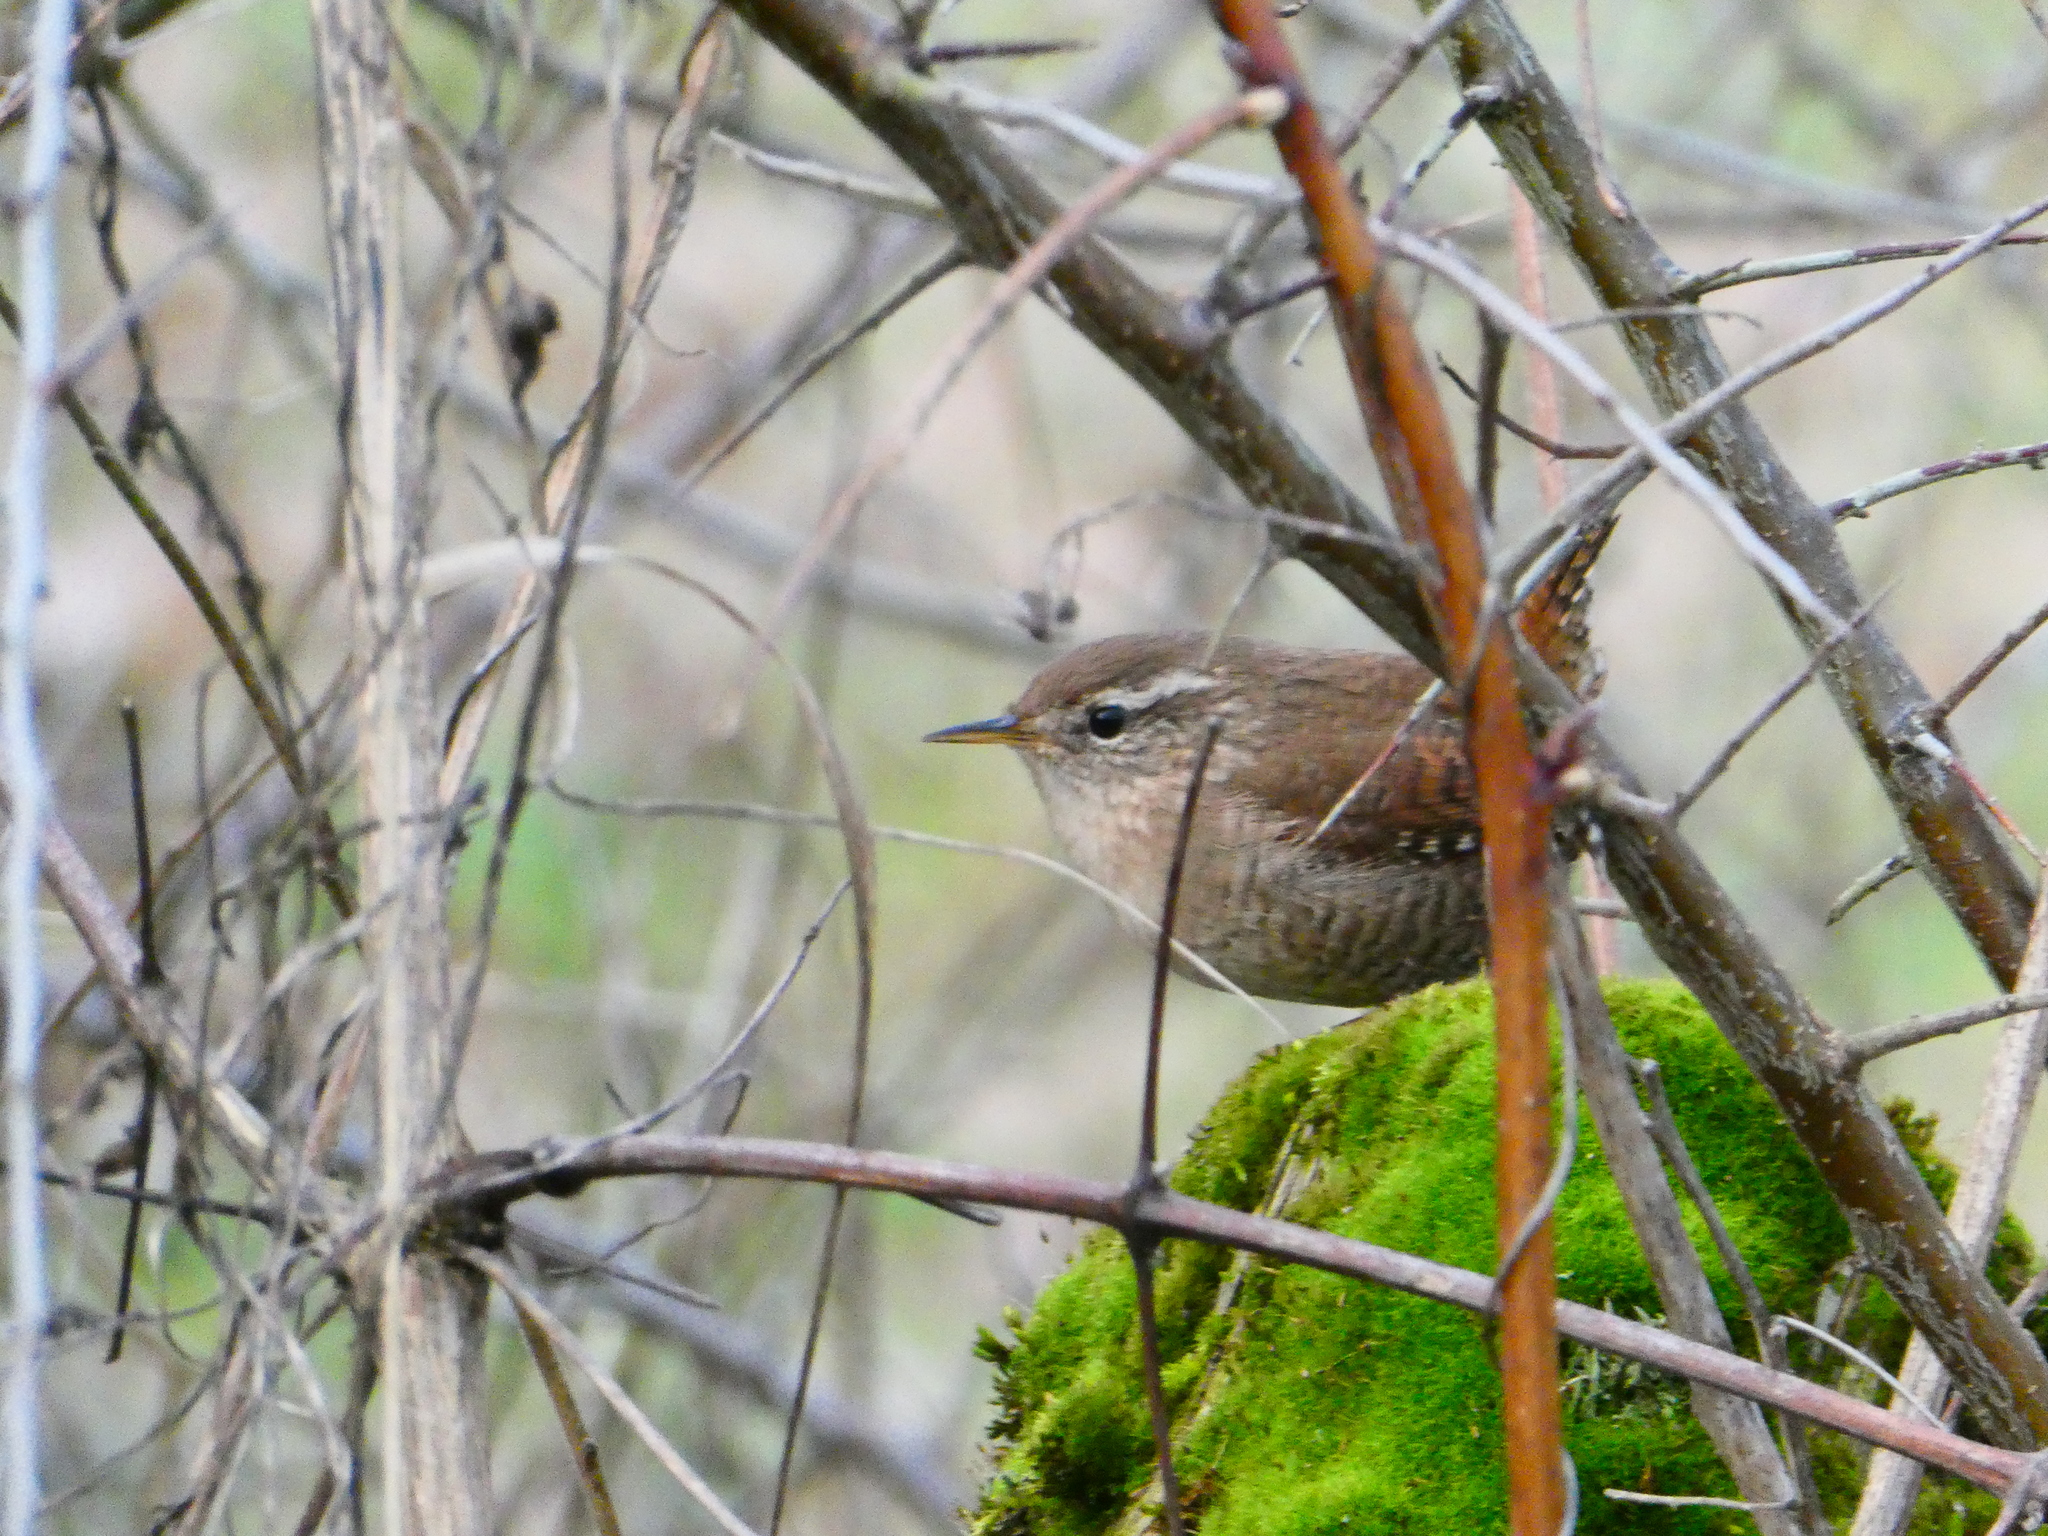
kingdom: Animalia
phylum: Chordata
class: Aves
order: Passeriformes
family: Troglodytidae
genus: Troglodytes
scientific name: Troglodytes troglodytes
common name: Eurasian wren
